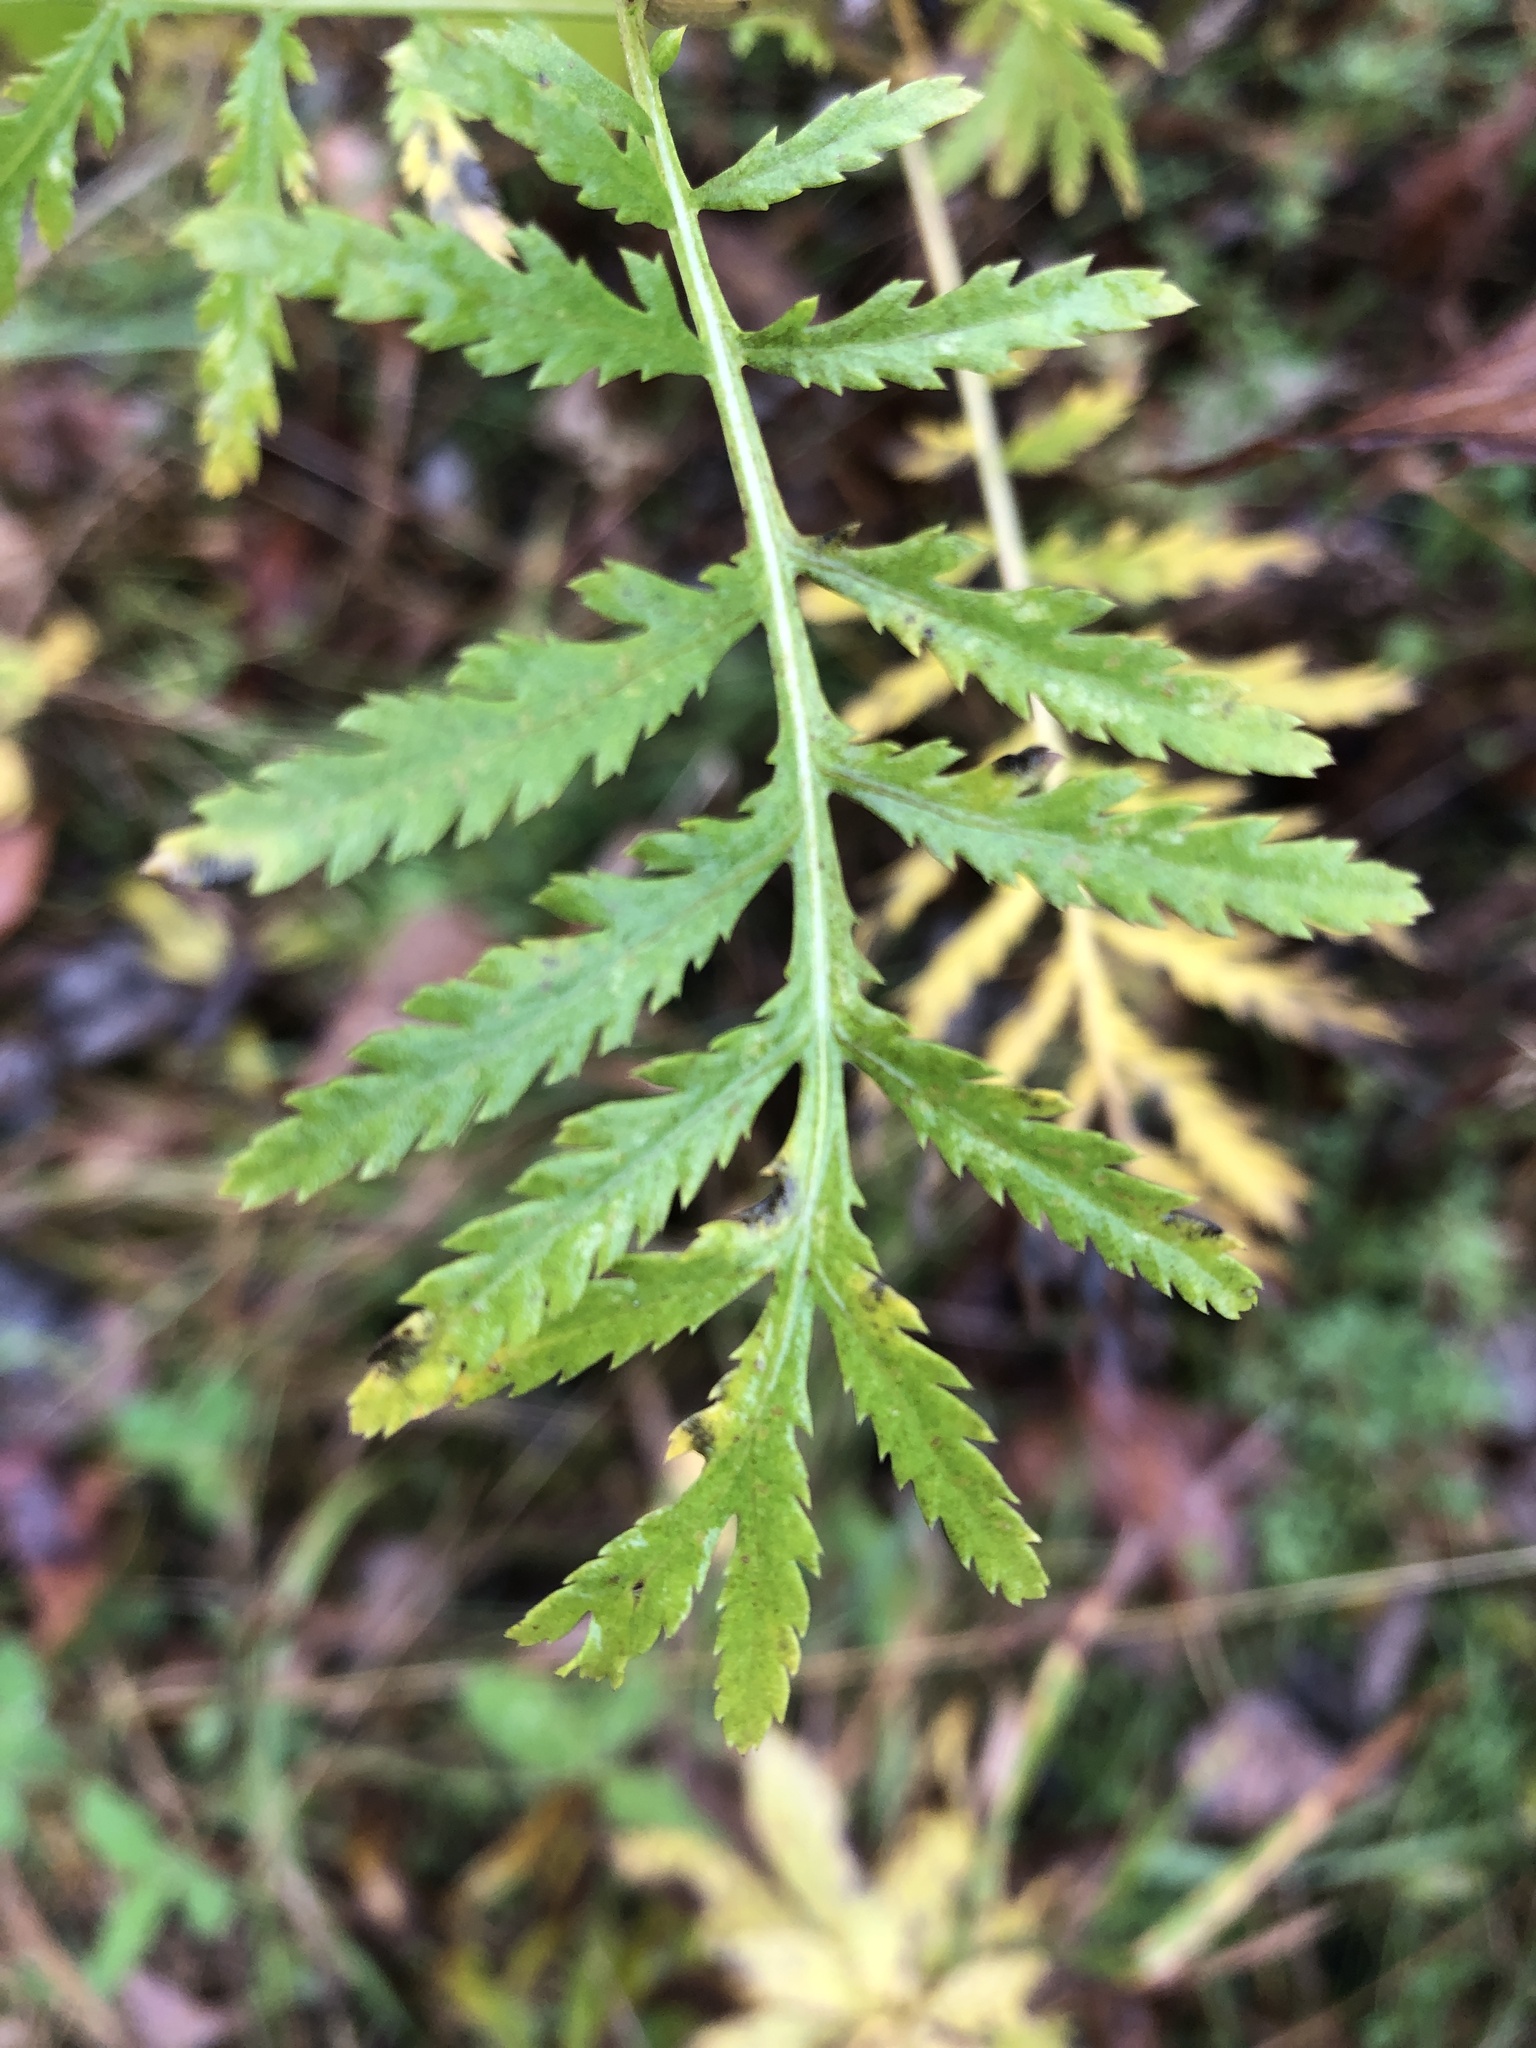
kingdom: Plantae
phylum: Tracheophyta
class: Magnoliopsida
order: Asterales
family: Asteraceae
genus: Tanacetum
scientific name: Tanacetum vulgare
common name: Common tansy
